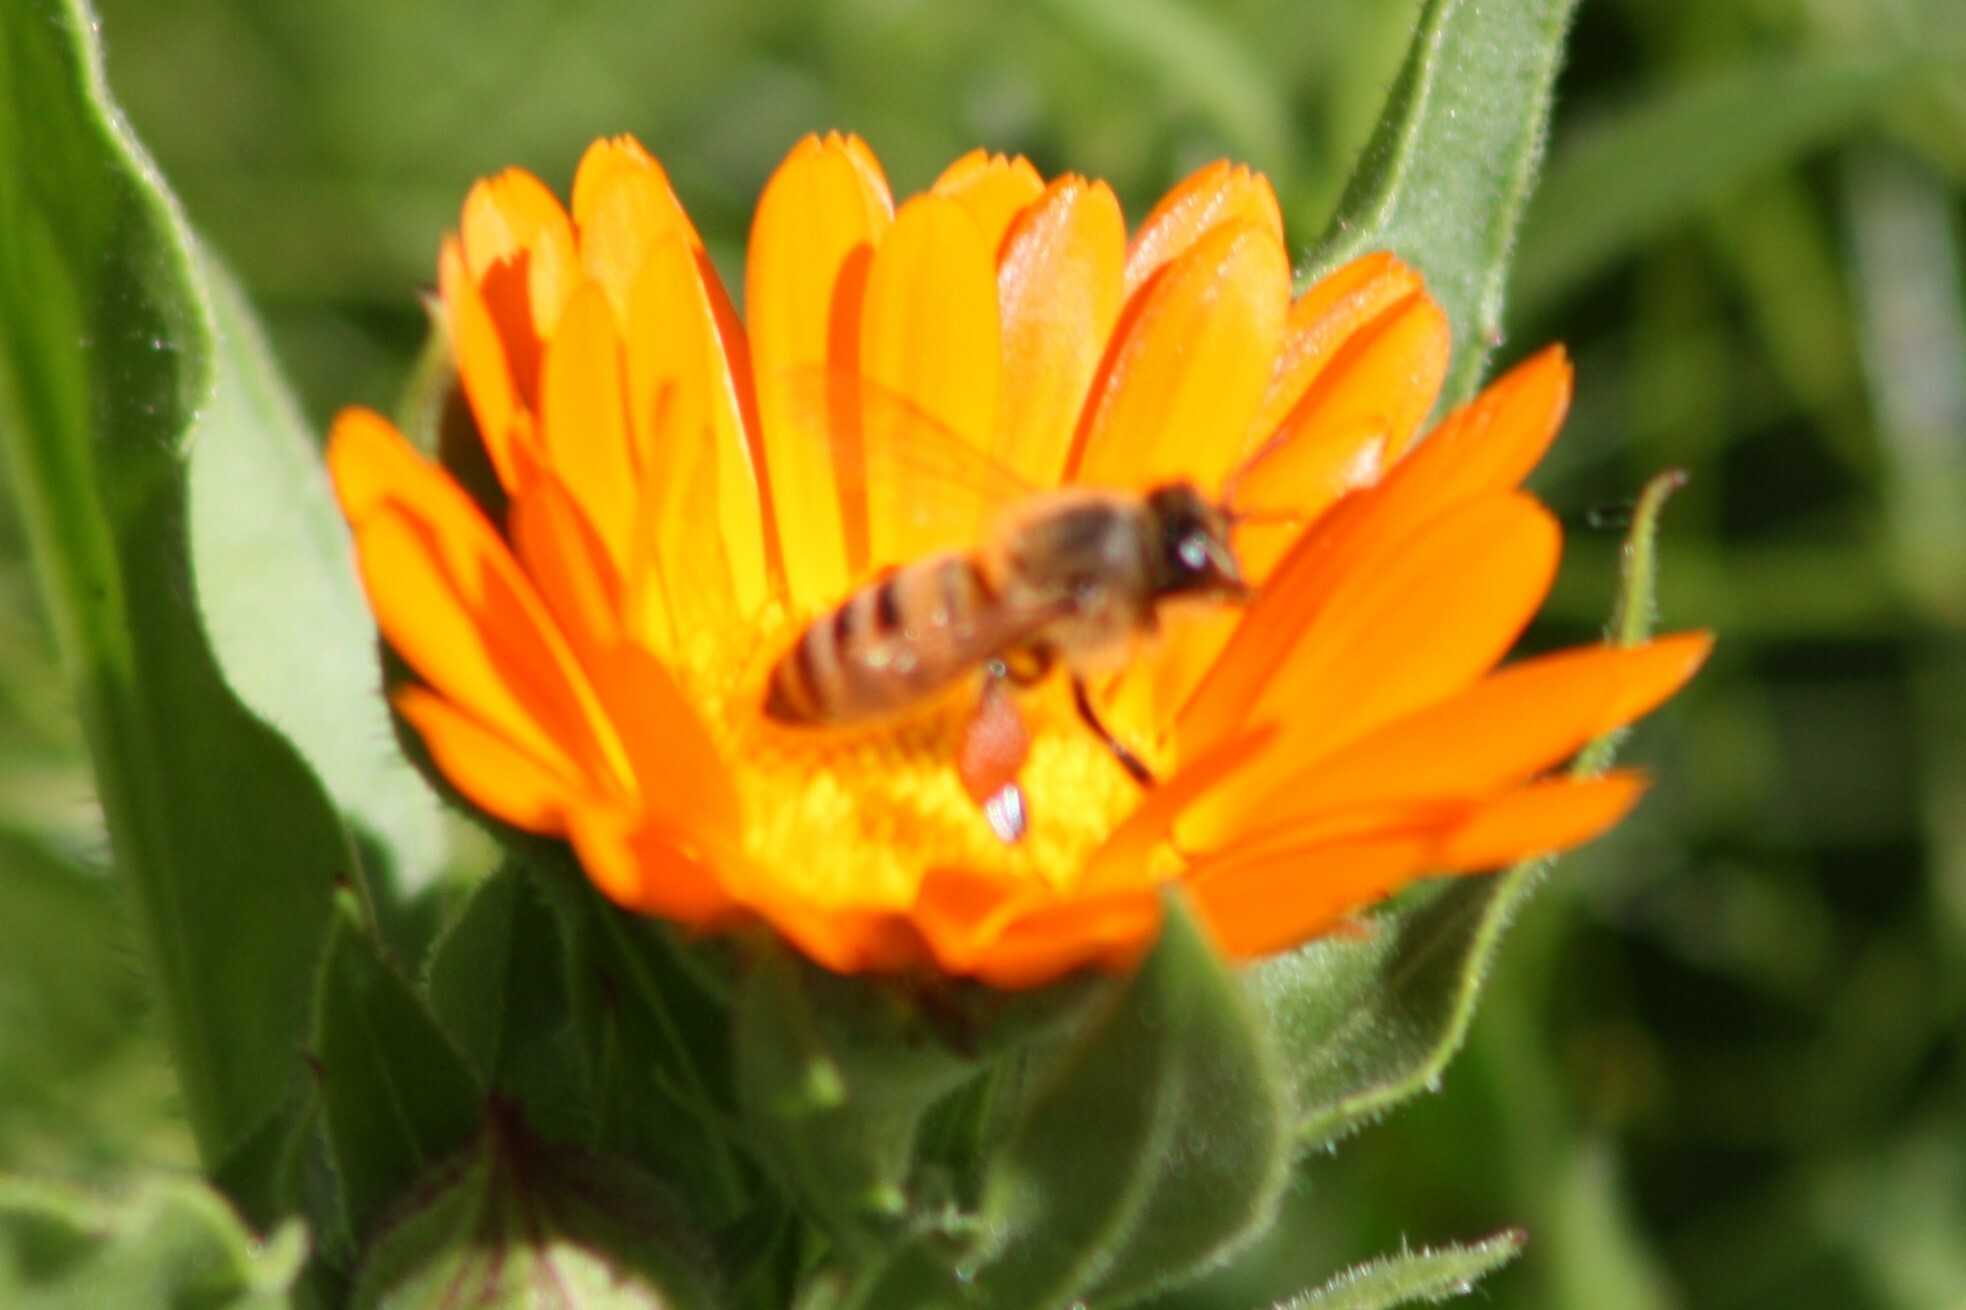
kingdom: Animalia
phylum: Arthropoda
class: Insecta
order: Hymenoptera
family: Apidae
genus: Apis
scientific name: Apis mellifera
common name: Honey bee
